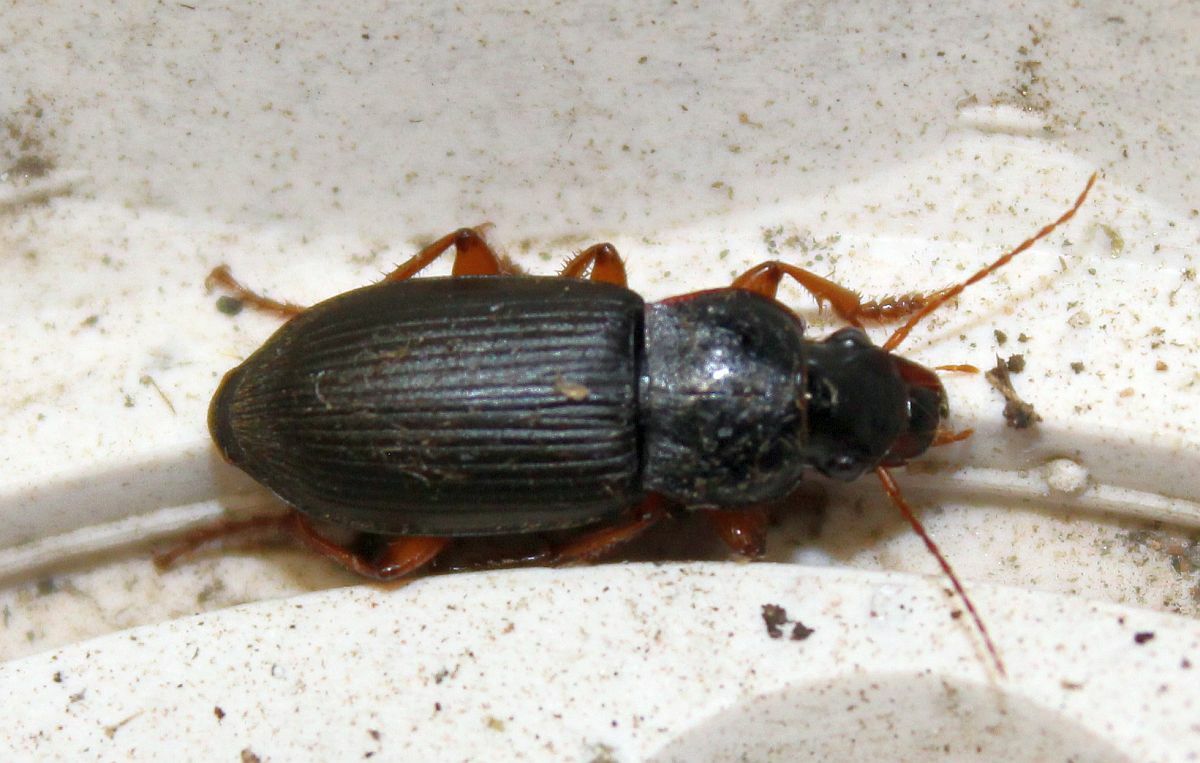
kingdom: Animalia
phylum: Arthropoda
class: Insecta
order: Coleoptera
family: Carabidae
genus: Harpalus
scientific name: Harpalus rufipes
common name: Strawberry harp ground beetle
